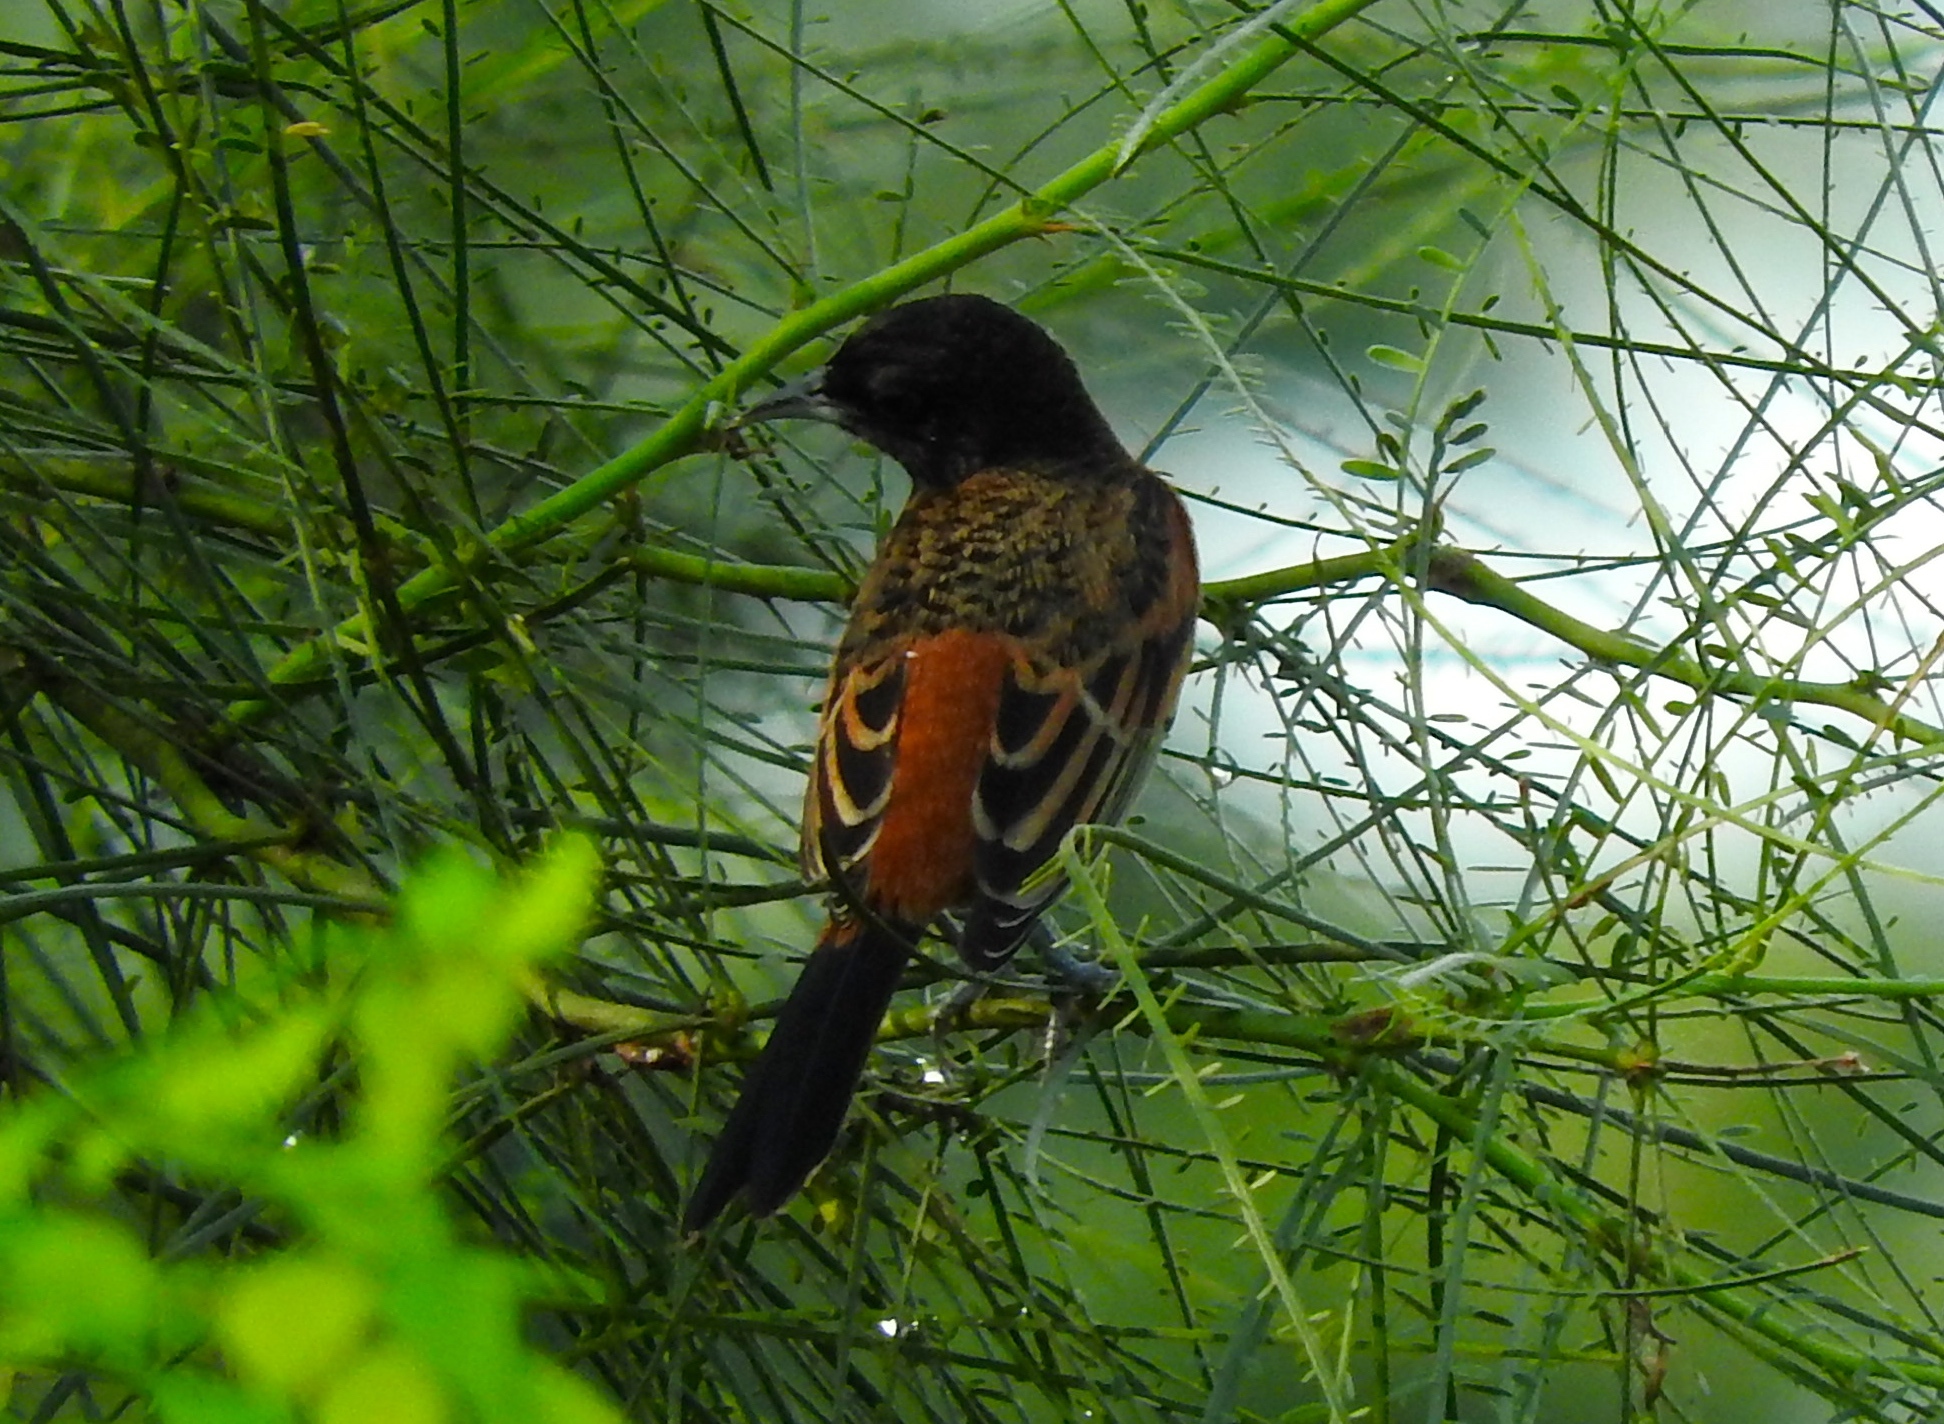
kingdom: Animalia
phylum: Chordata
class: Aves
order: Passeriformes
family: Icteridae
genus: Icterus
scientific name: Icterus spurius
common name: Orchard oriole
